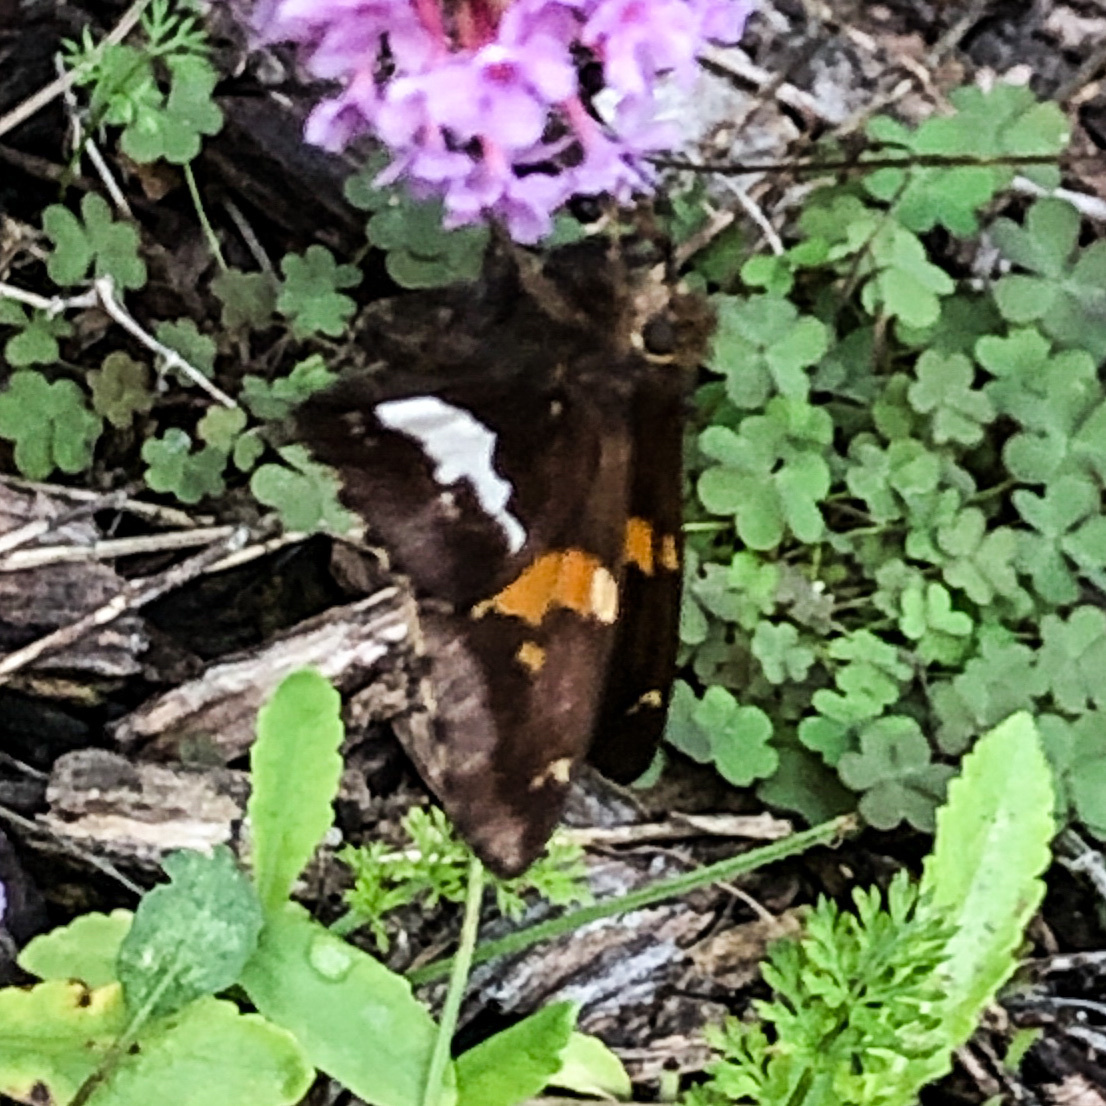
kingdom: Animalia
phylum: Arthropoda
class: Insecta
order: Lepidoptera
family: Hesperiidae
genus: Epargyreus
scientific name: Epargyreus clarus
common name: Silver-spotted skipper
